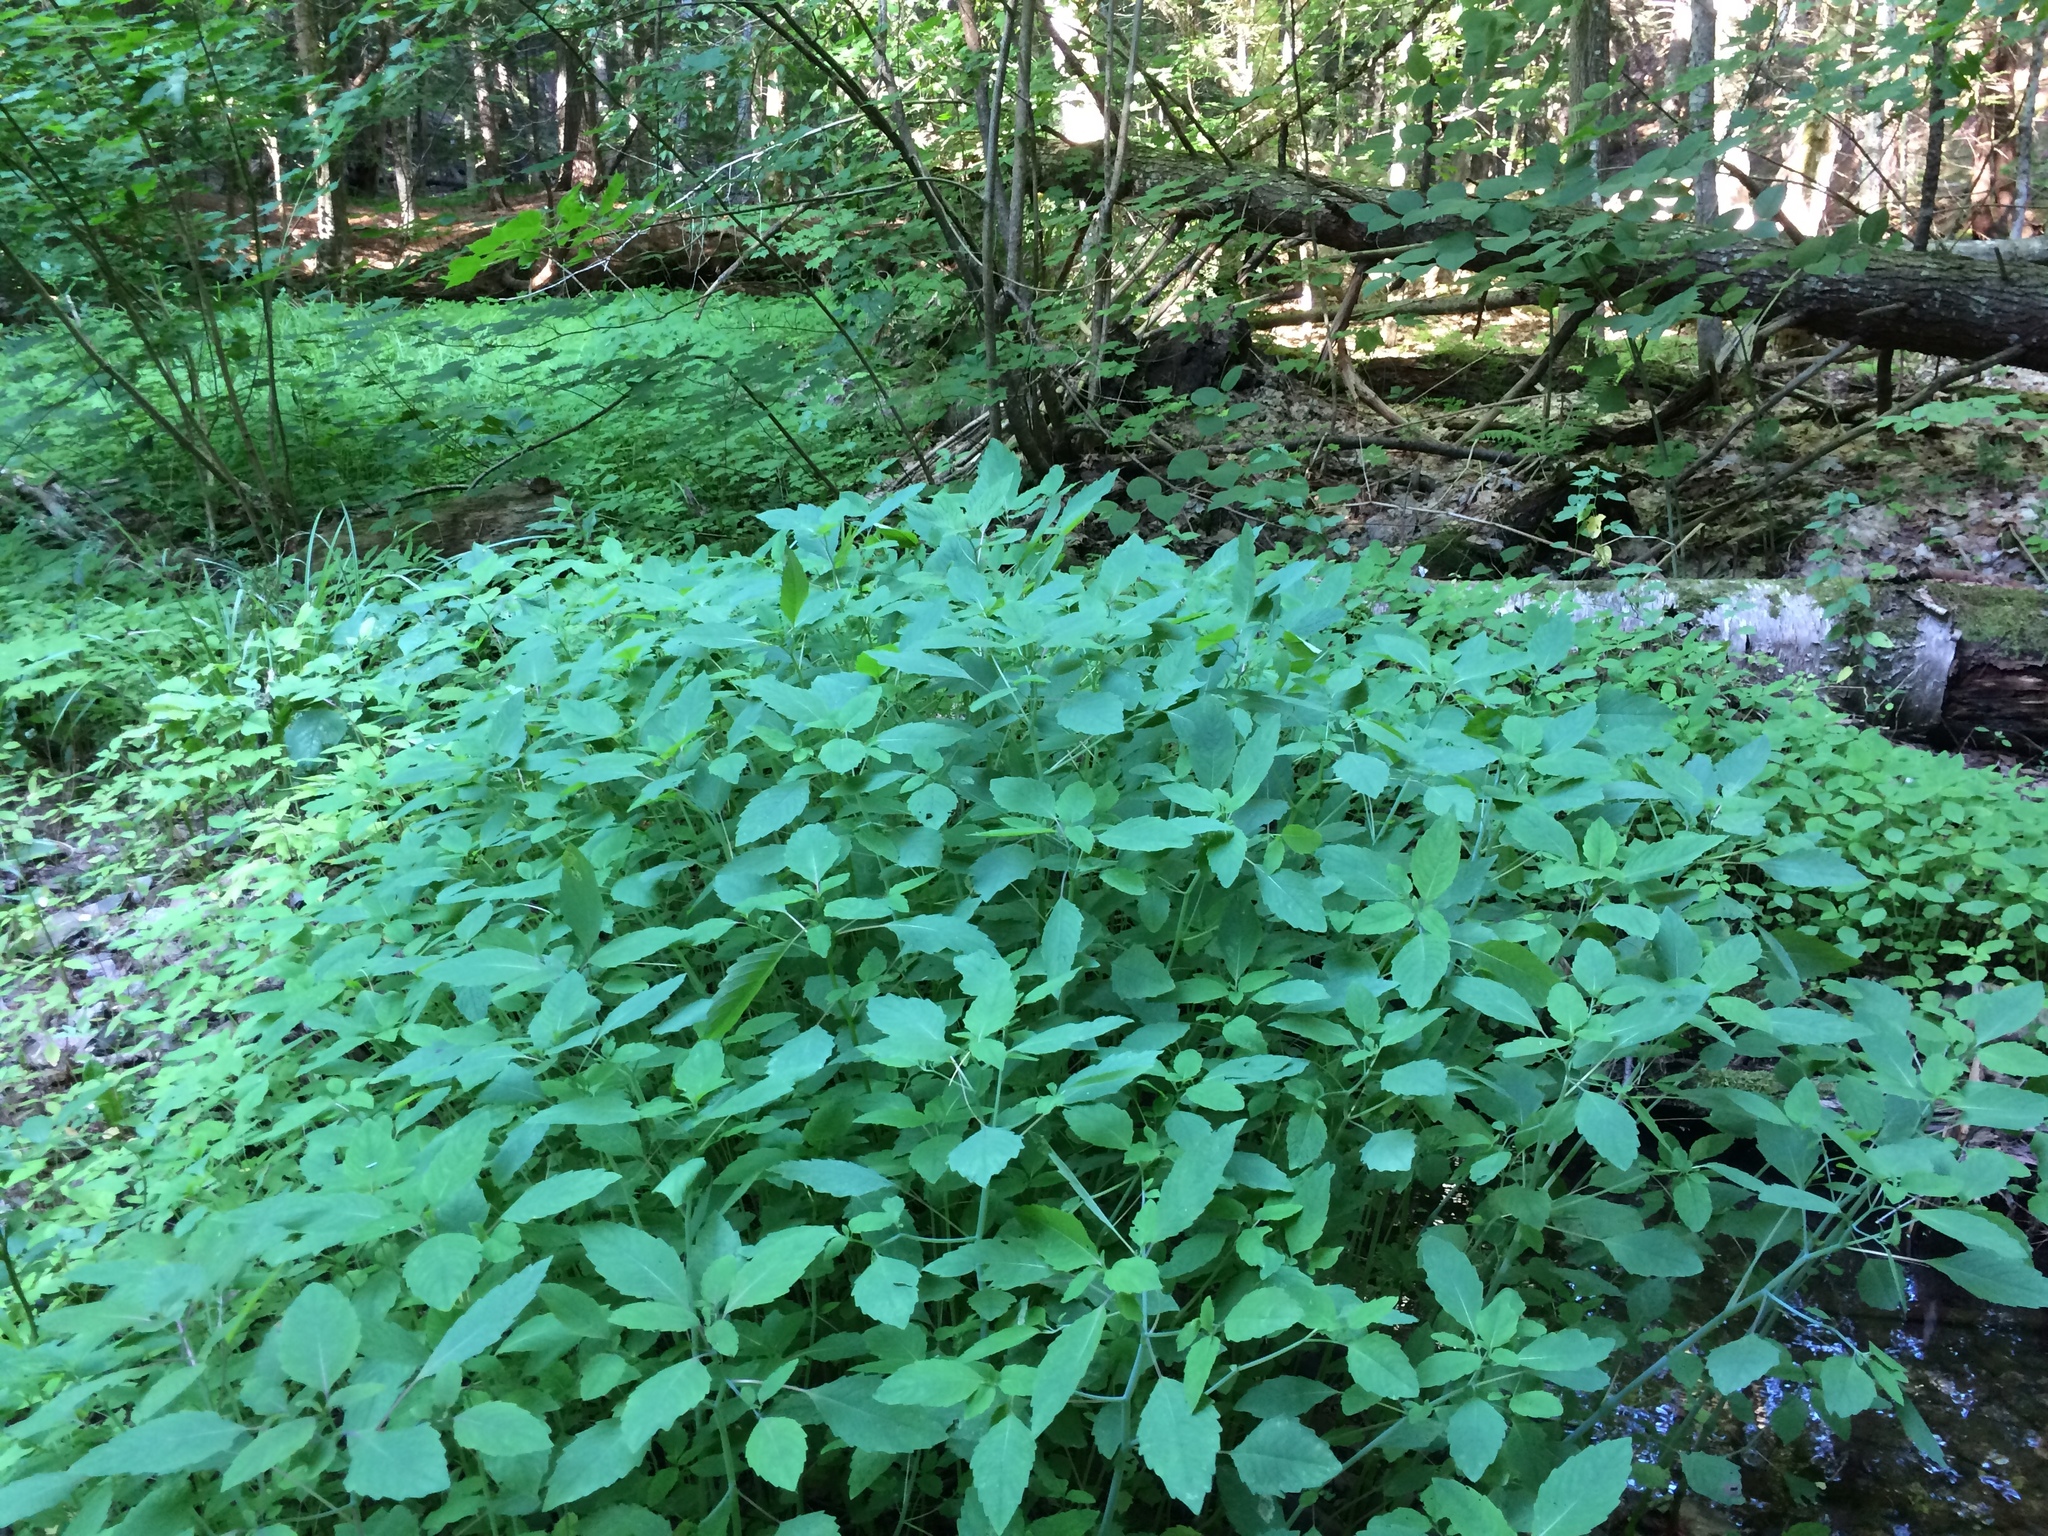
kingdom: Plantae
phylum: Tracheophyta
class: Magnoliopsida
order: Ericales
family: Balsaminaceae
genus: Impatiens
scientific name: Impatiens capensis
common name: Orange balsam
